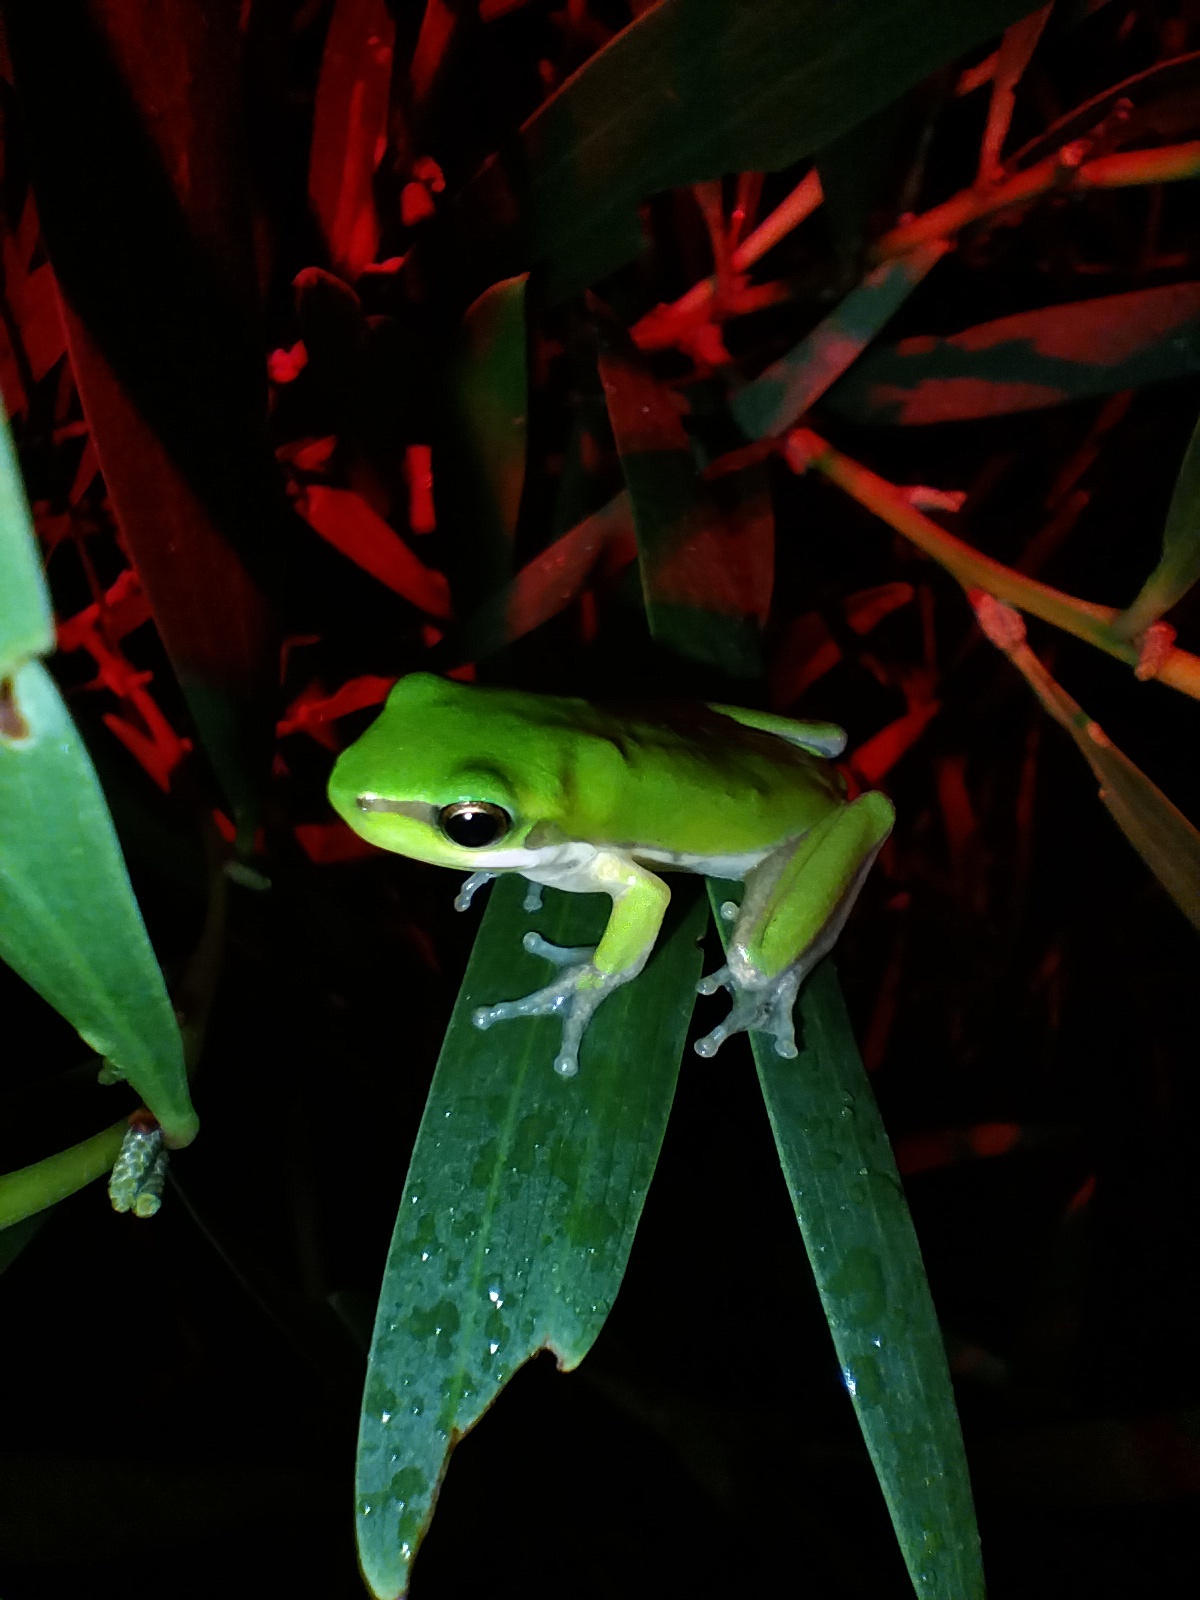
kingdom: Animalia
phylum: Chordata
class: Amphibia
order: Anura
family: Pelodryadidae
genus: Litoria
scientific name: Litoria fallax
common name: Eastern dwarf treefrog
